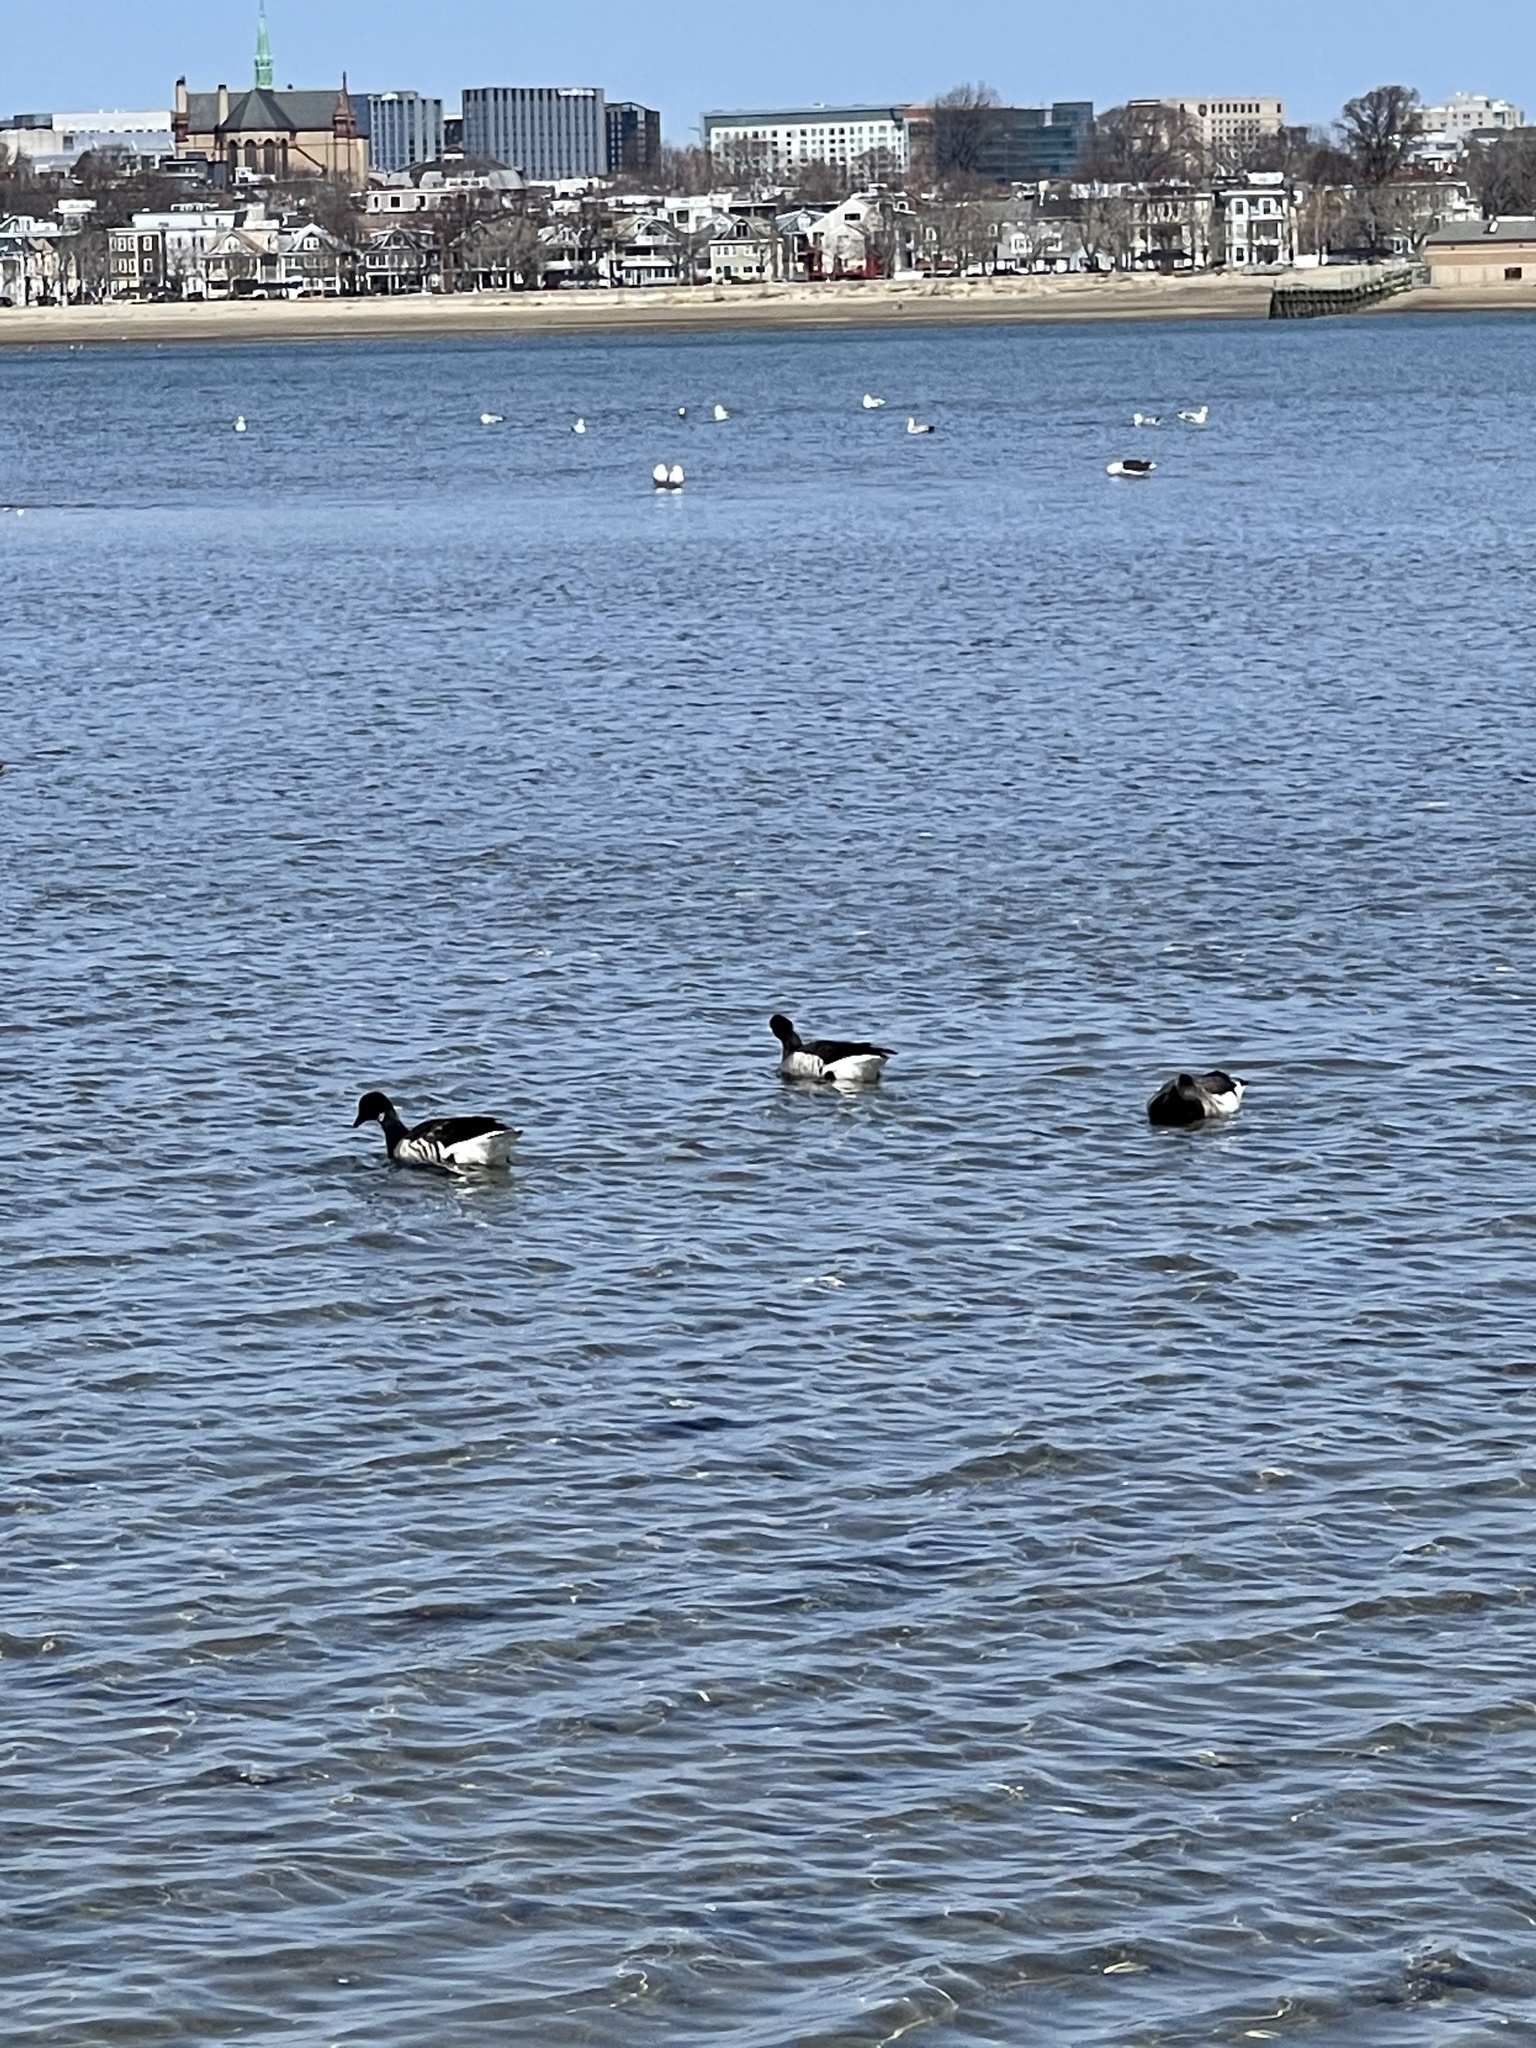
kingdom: Animalia
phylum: Chordata
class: Aves
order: Anseriformes
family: Anatidae
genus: Branta
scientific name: Branta bernicla
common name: Brant goose
